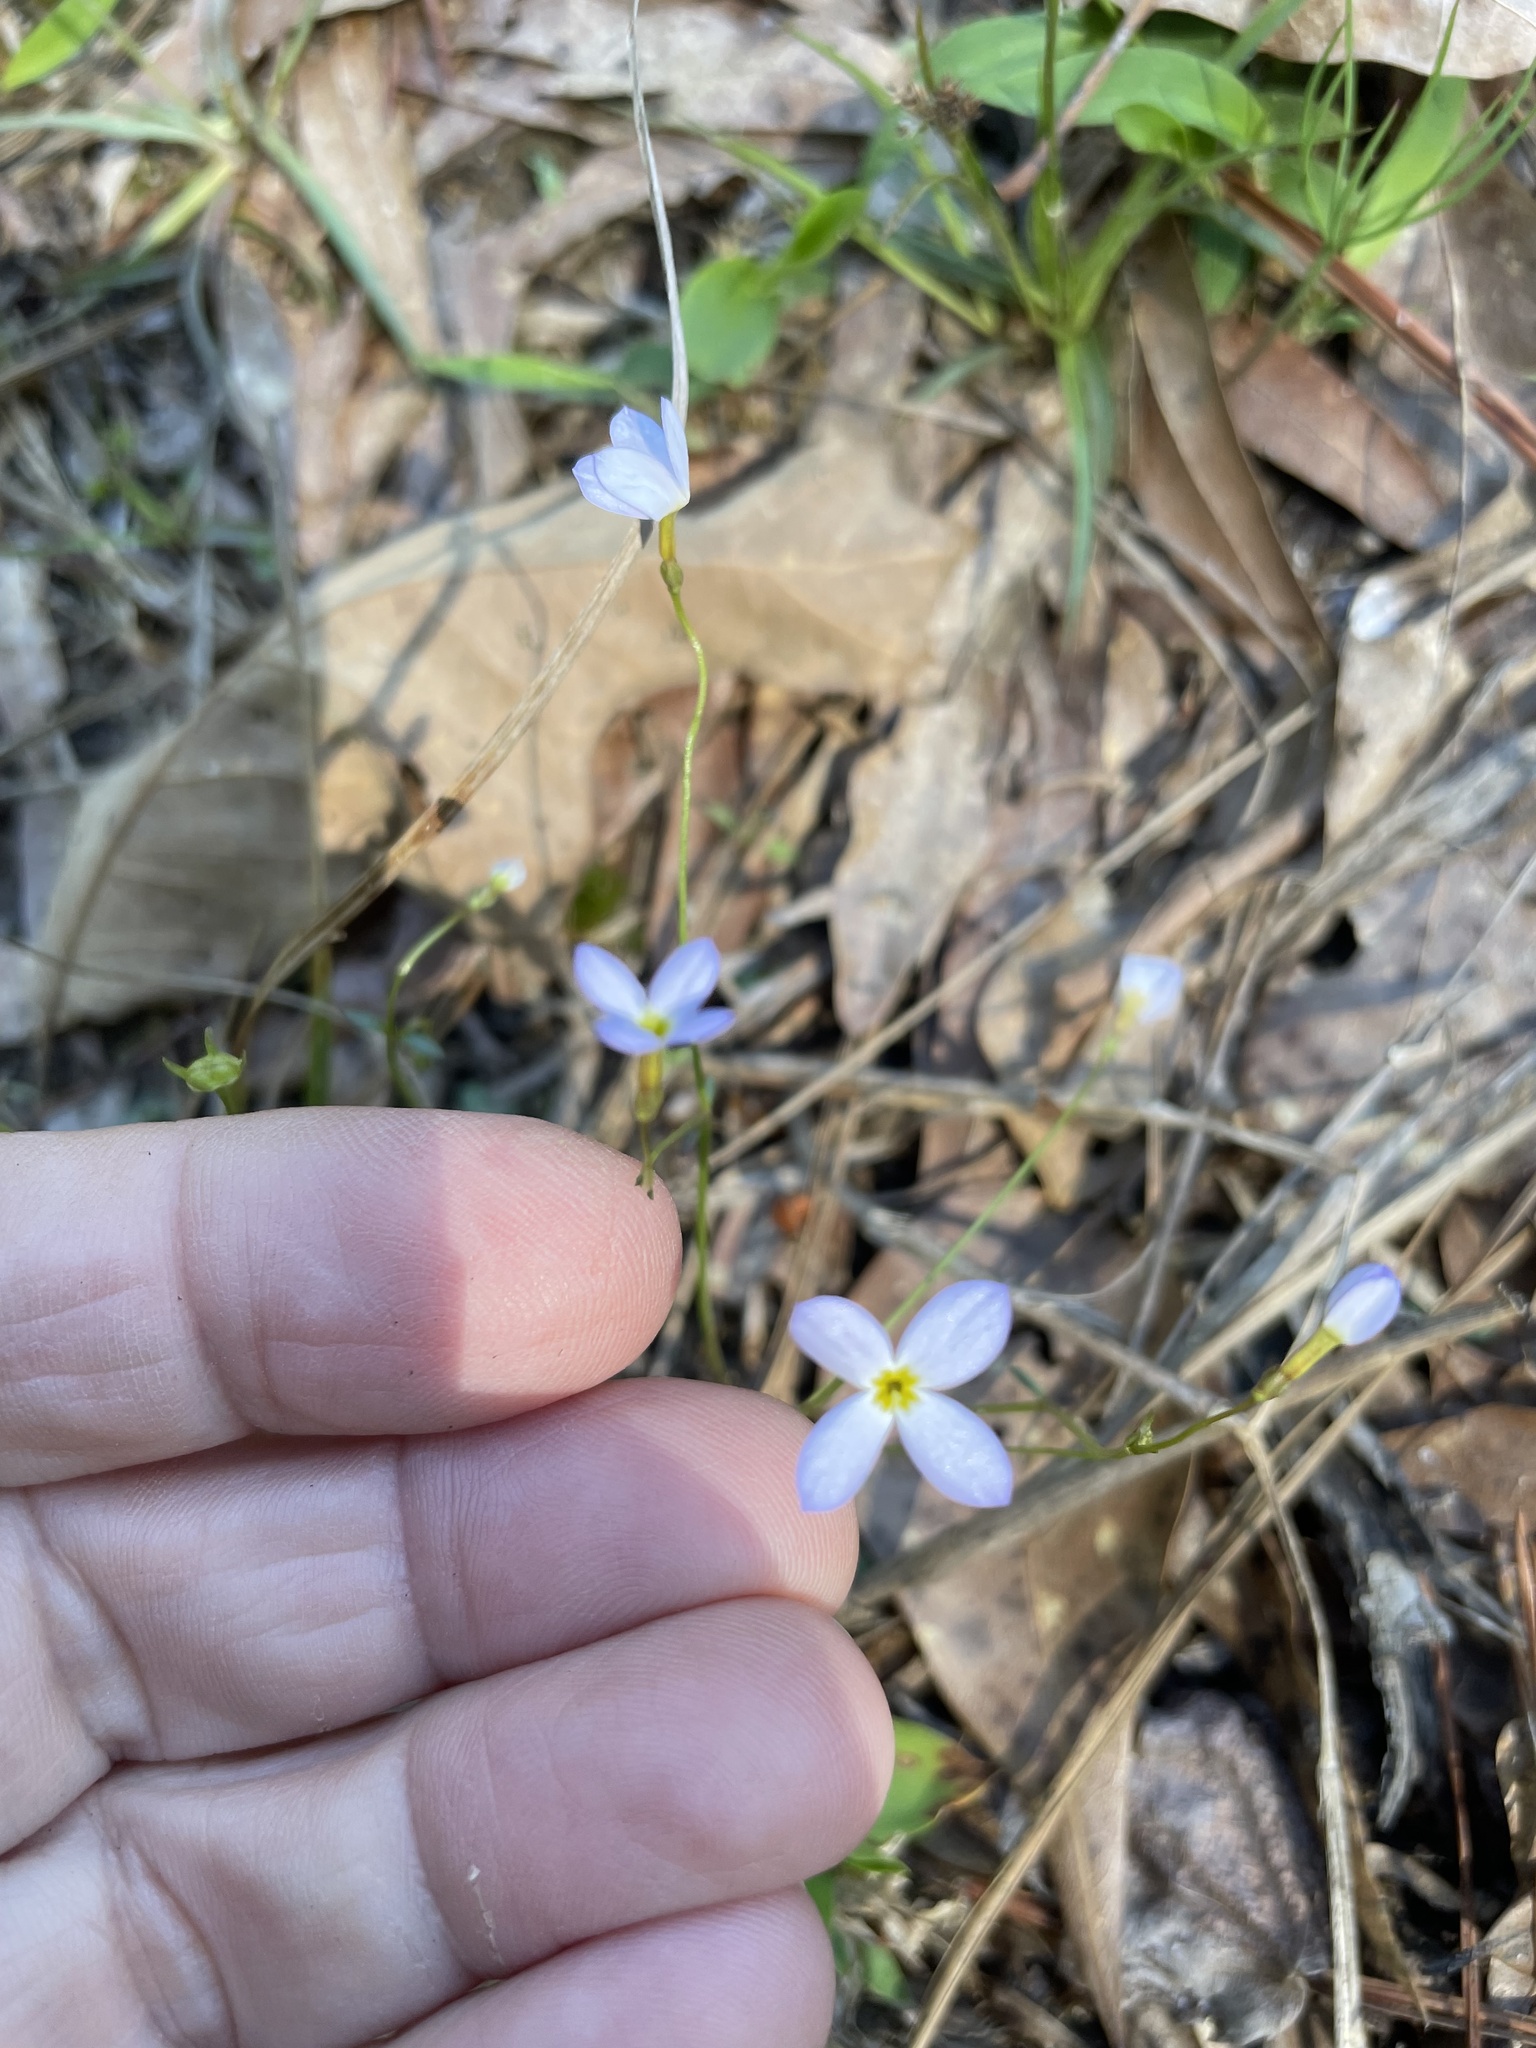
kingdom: Plantae
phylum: Tracheophyta
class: Magnoliopsida
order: Gentianales
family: Rubiaceae
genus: Houstonia
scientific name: Houstonia caerulea
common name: Bluets
